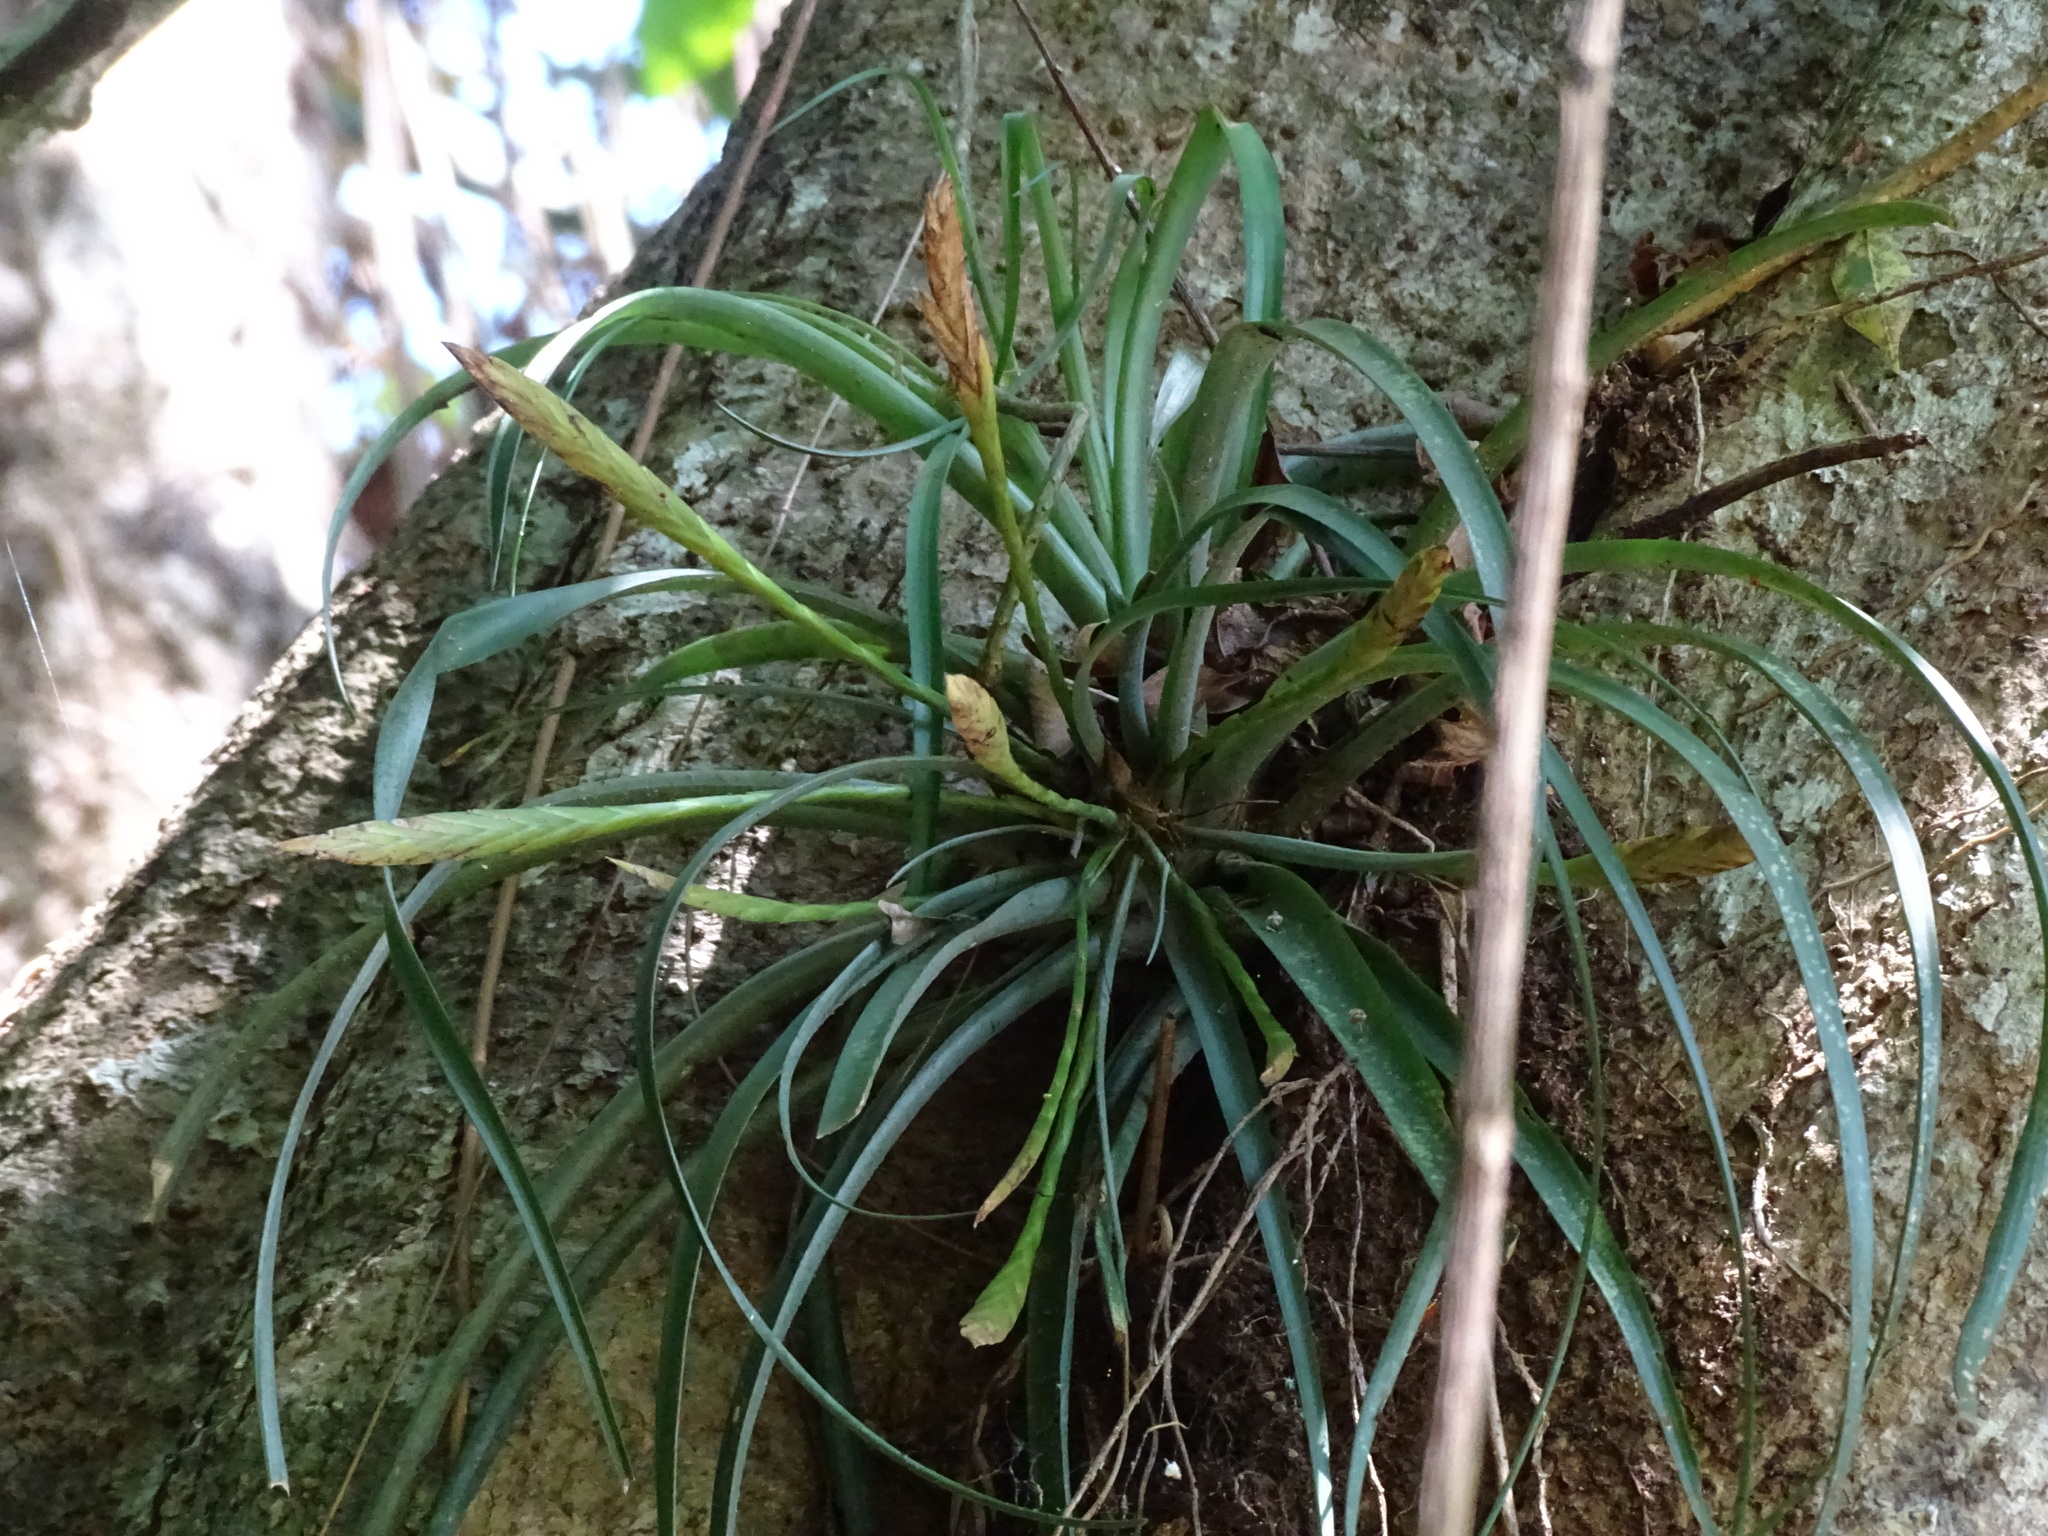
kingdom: Plantae
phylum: Tracheophyta
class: Liliopsida
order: Poales
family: Bromeliaceae
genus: Tillandsia
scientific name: Tillandsia flabellata
